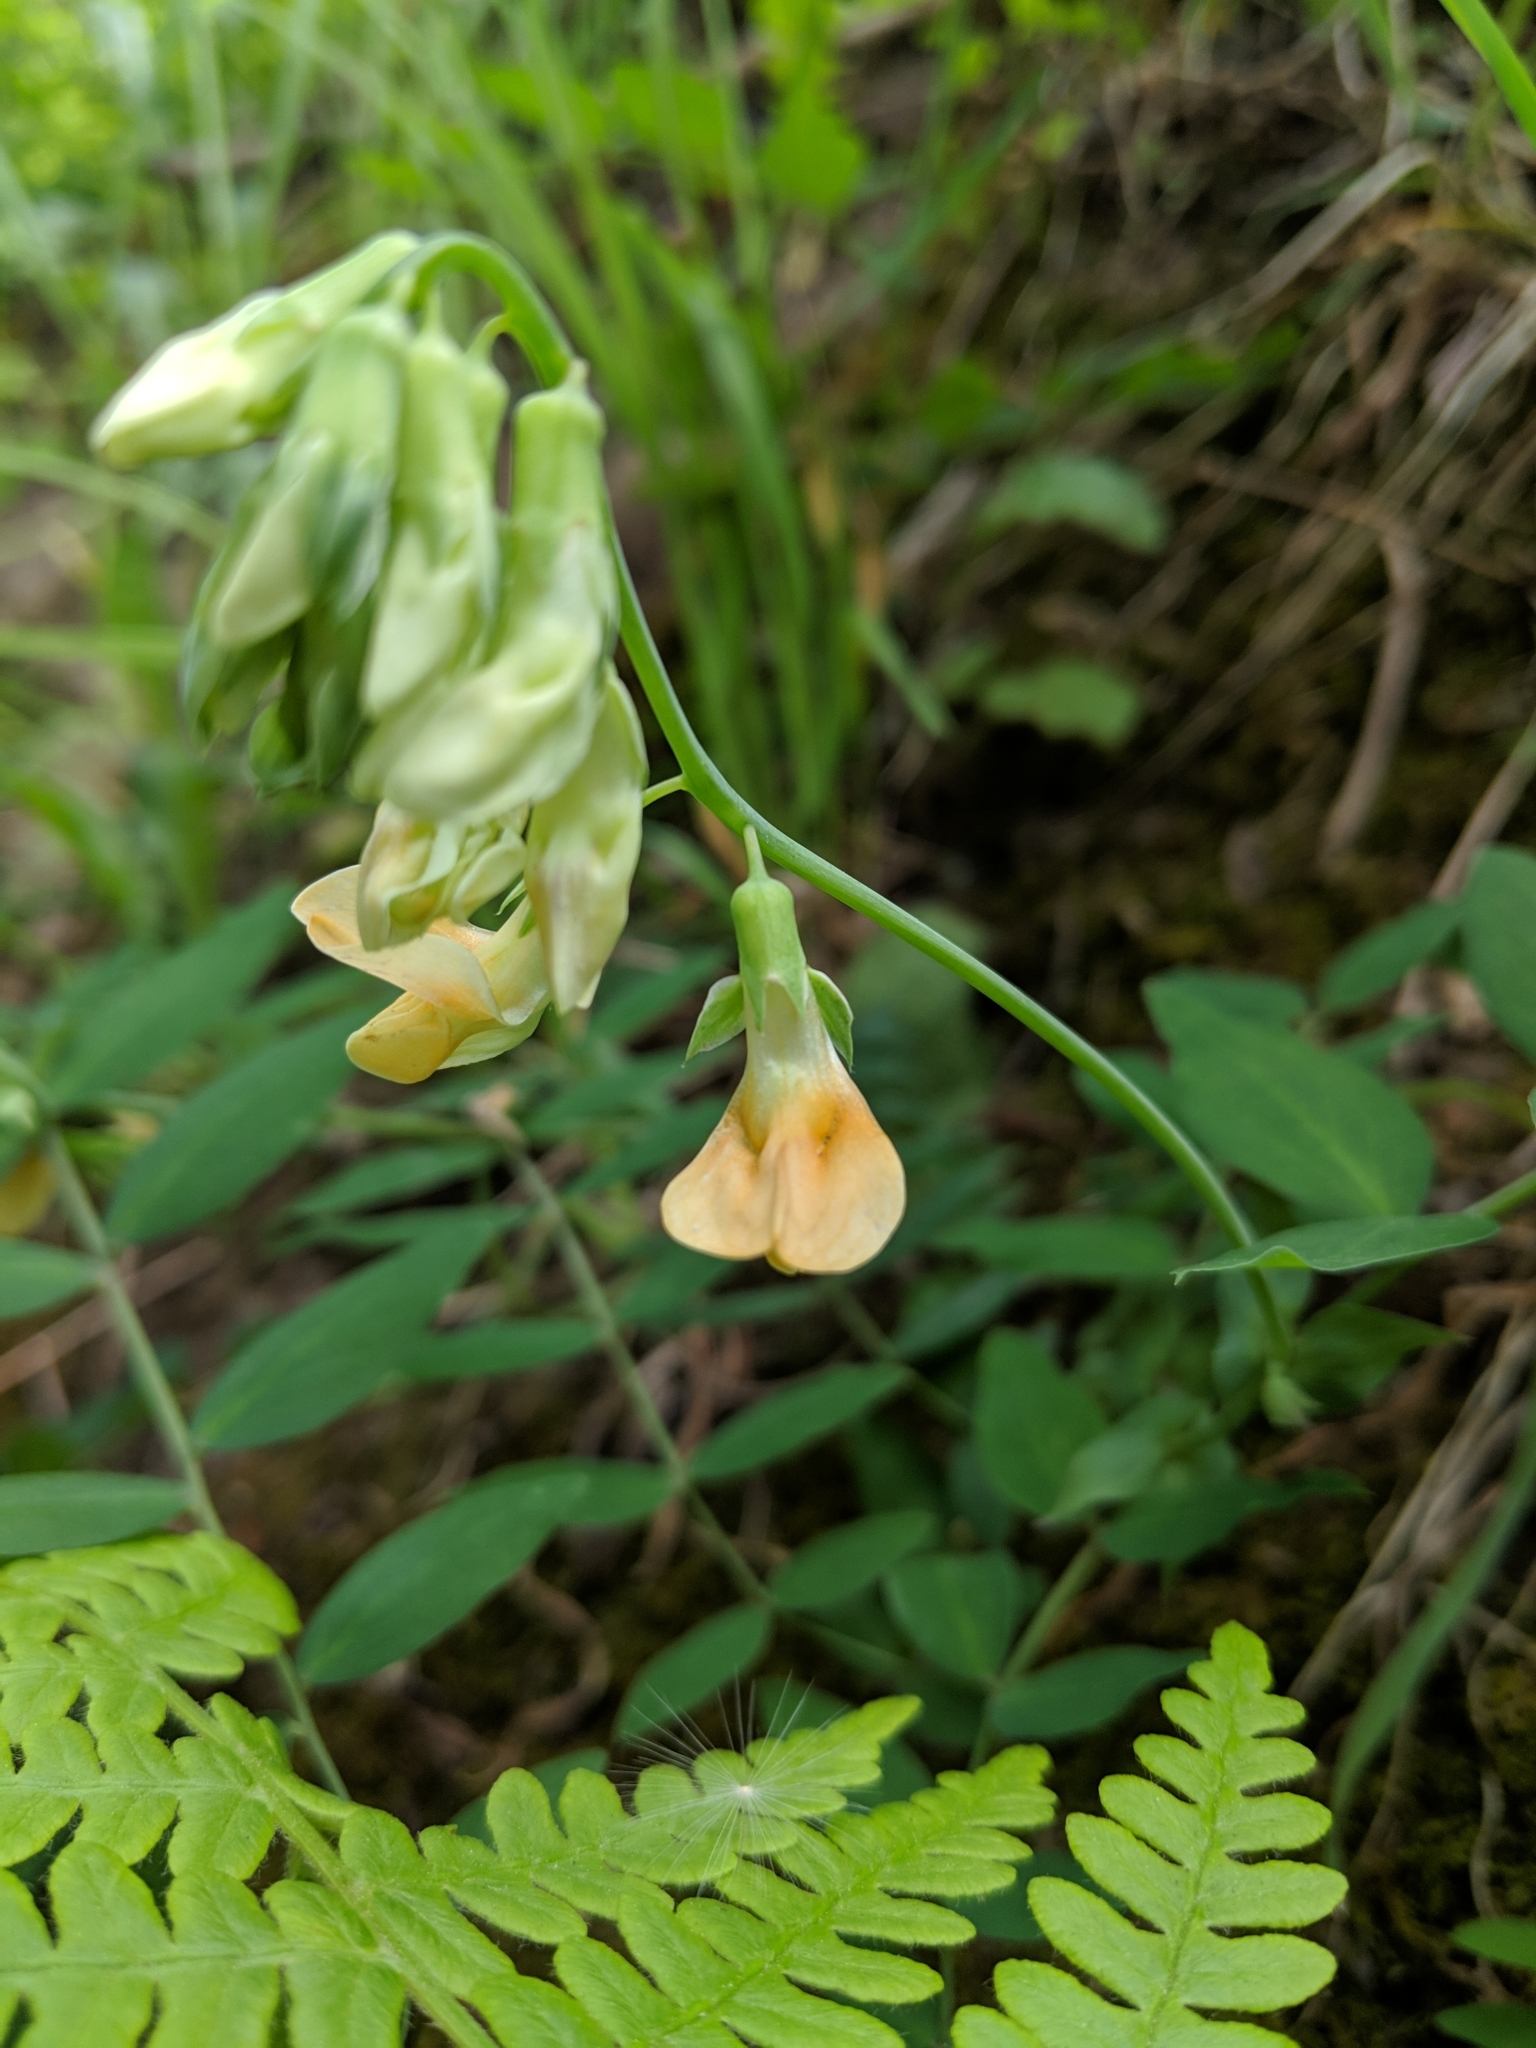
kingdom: Plantae
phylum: Tracheophyta
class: Magnoliopsida
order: Fabales
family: Fabaceae
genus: Lathyrus
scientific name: Lathyrus vestitus
